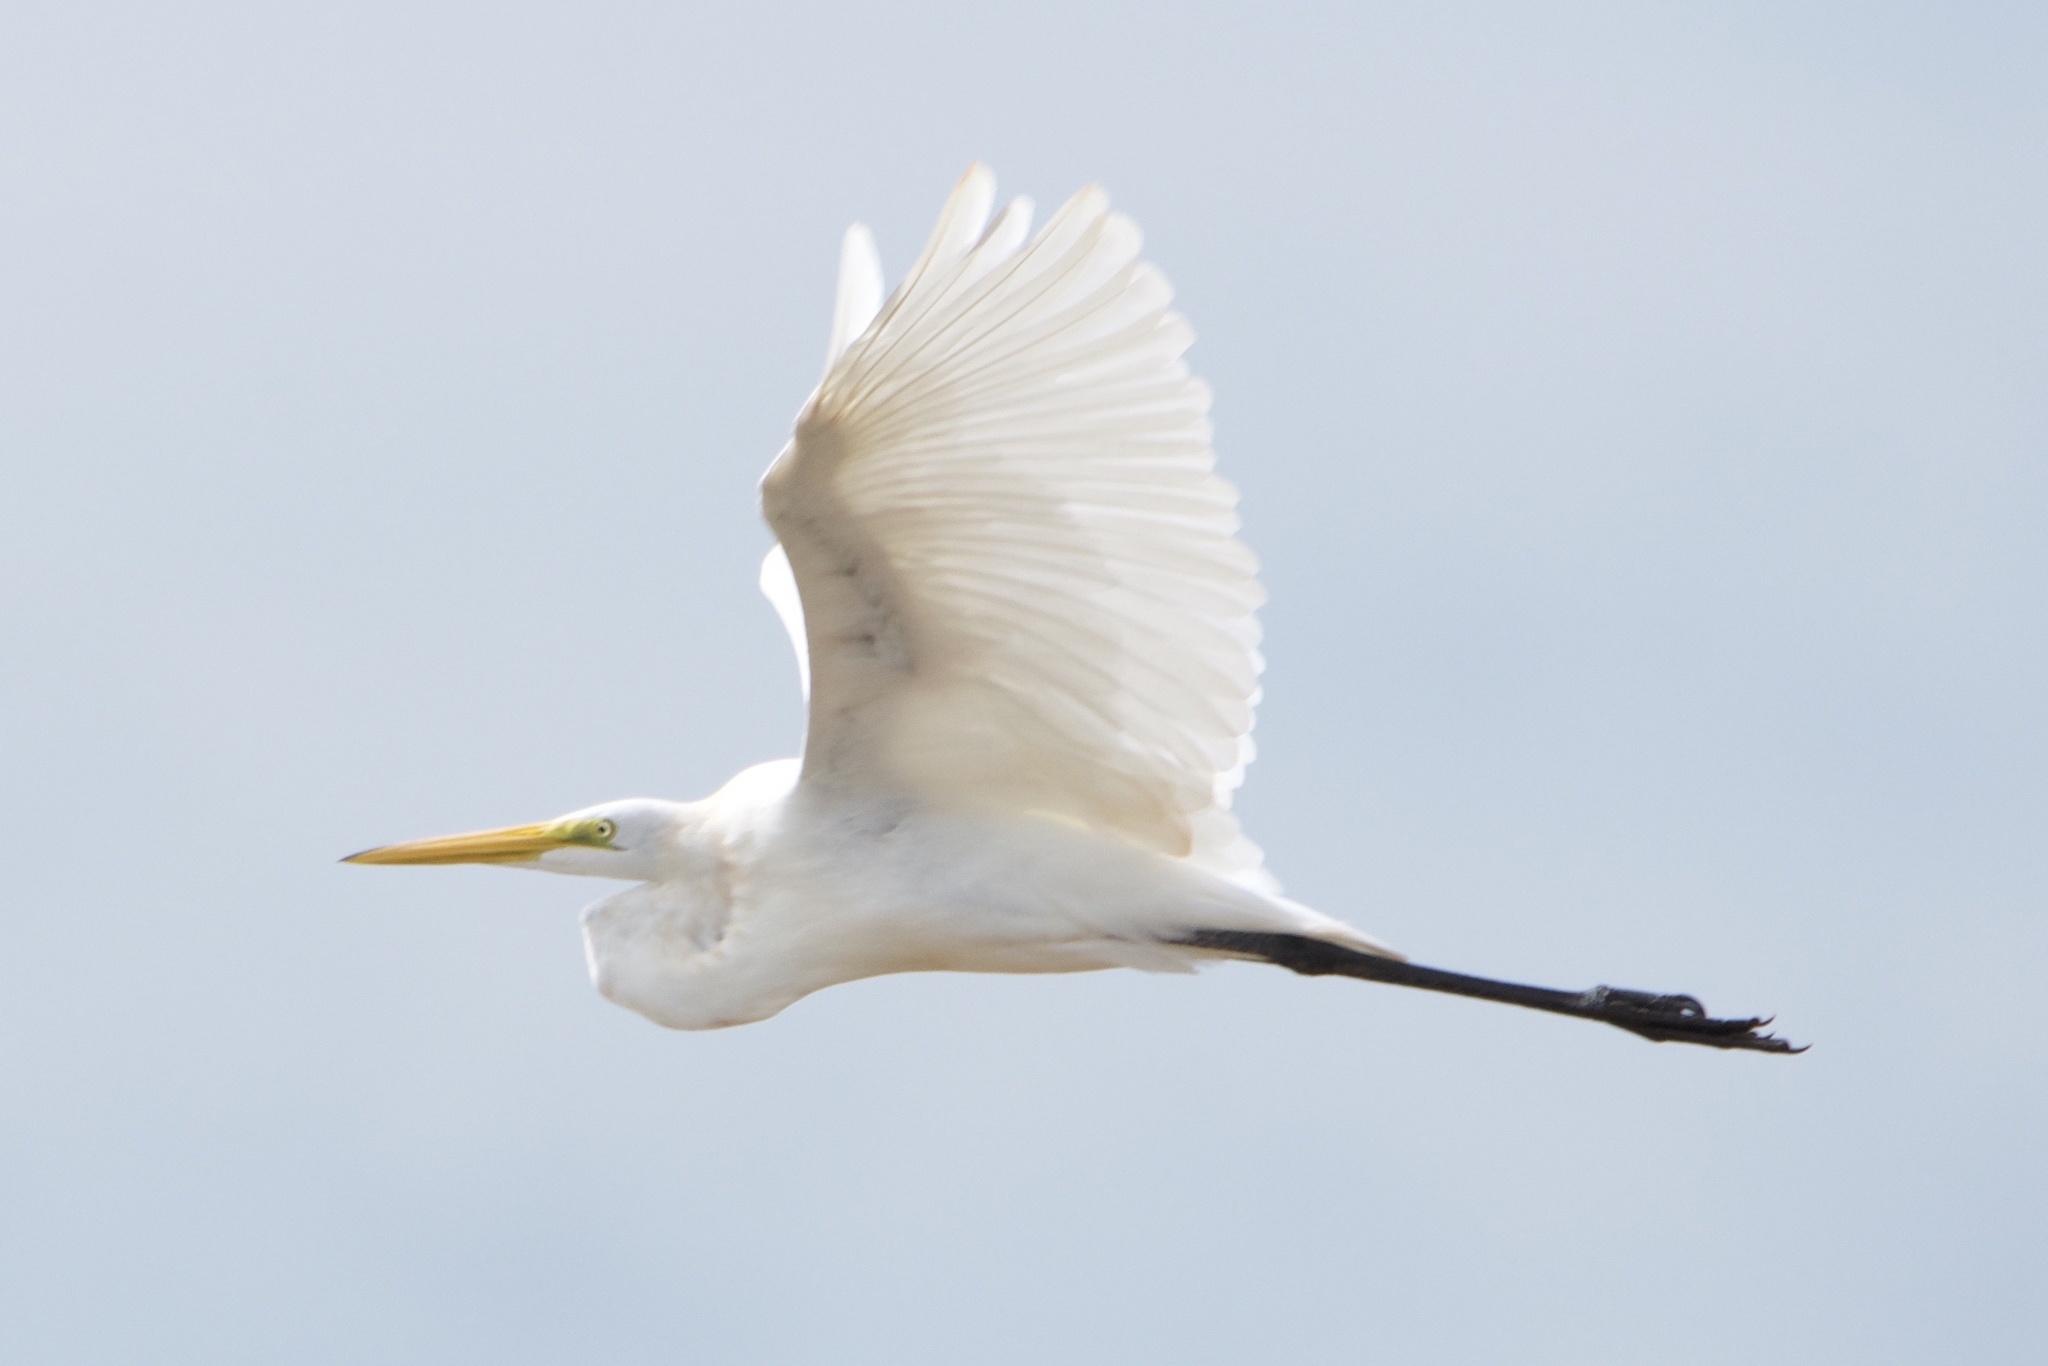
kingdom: Animalia
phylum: Chordata
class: Aves
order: Pelecaniformes
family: Ardeidae
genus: Ardea
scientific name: Ardea alba
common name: Great egret
